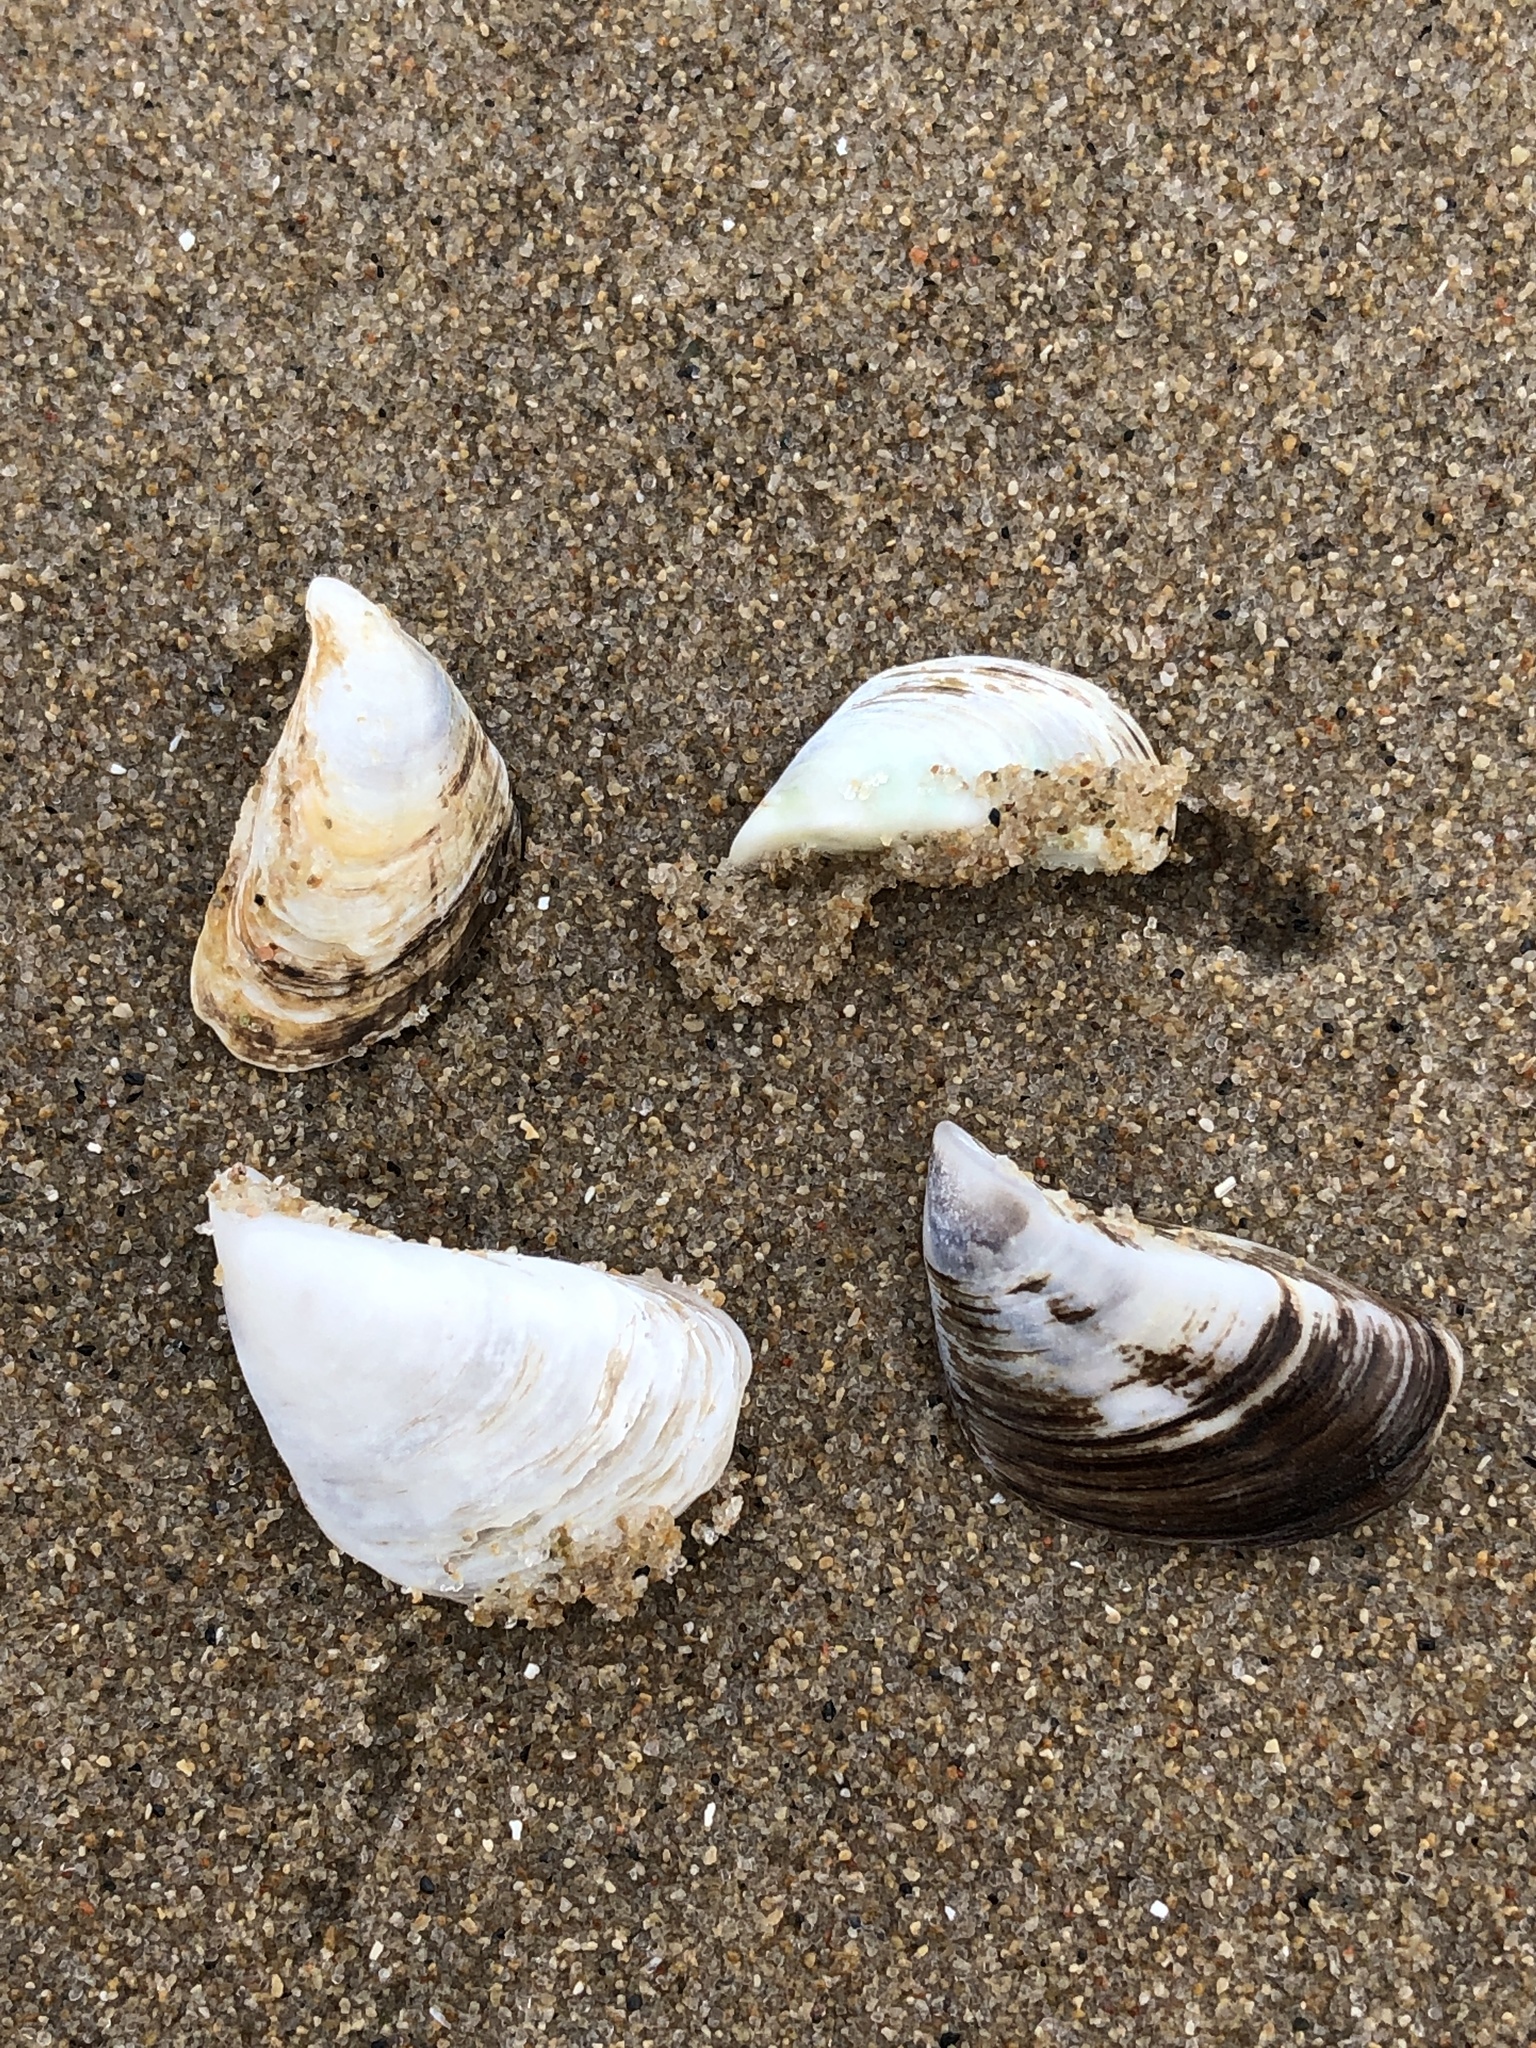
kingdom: Animalia
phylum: Mollusca
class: Bivalvia
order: Myida
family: Dreissenidae
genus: Dreissena
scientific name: Dreissena polymorpha
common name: Zebra mussel
